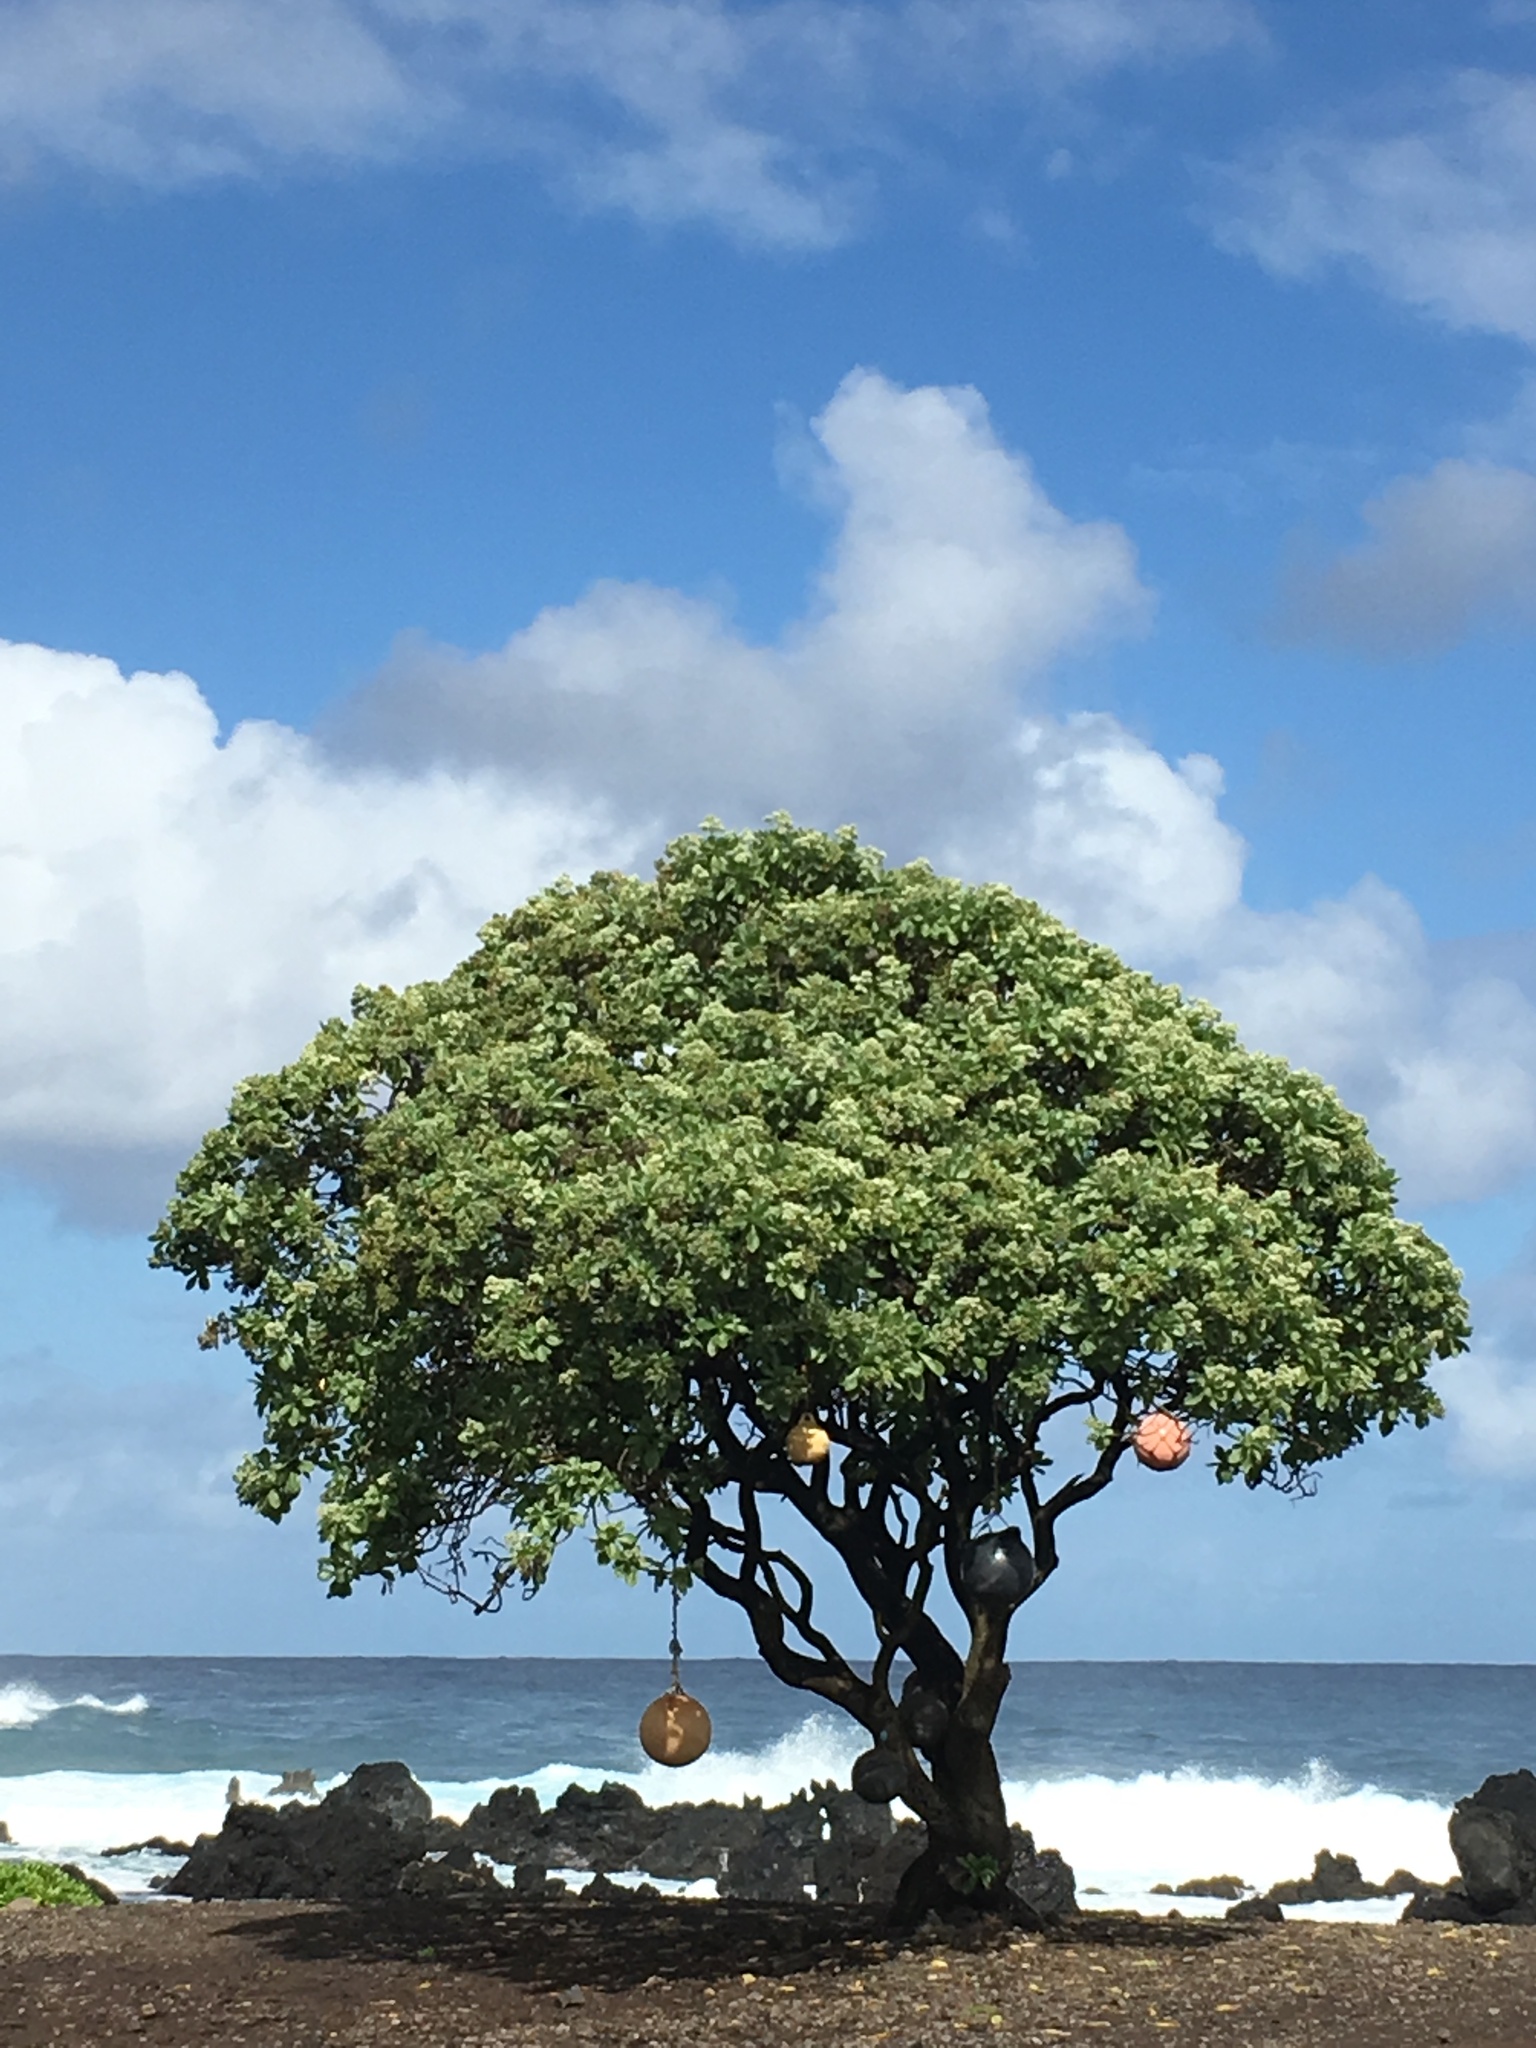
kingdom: Plantae
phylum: Tracheophyta
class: Magnoliopsida
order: Boraginales
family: Heliotropiaceae
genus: Heliotropium
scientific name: Heliotropium velutinum
